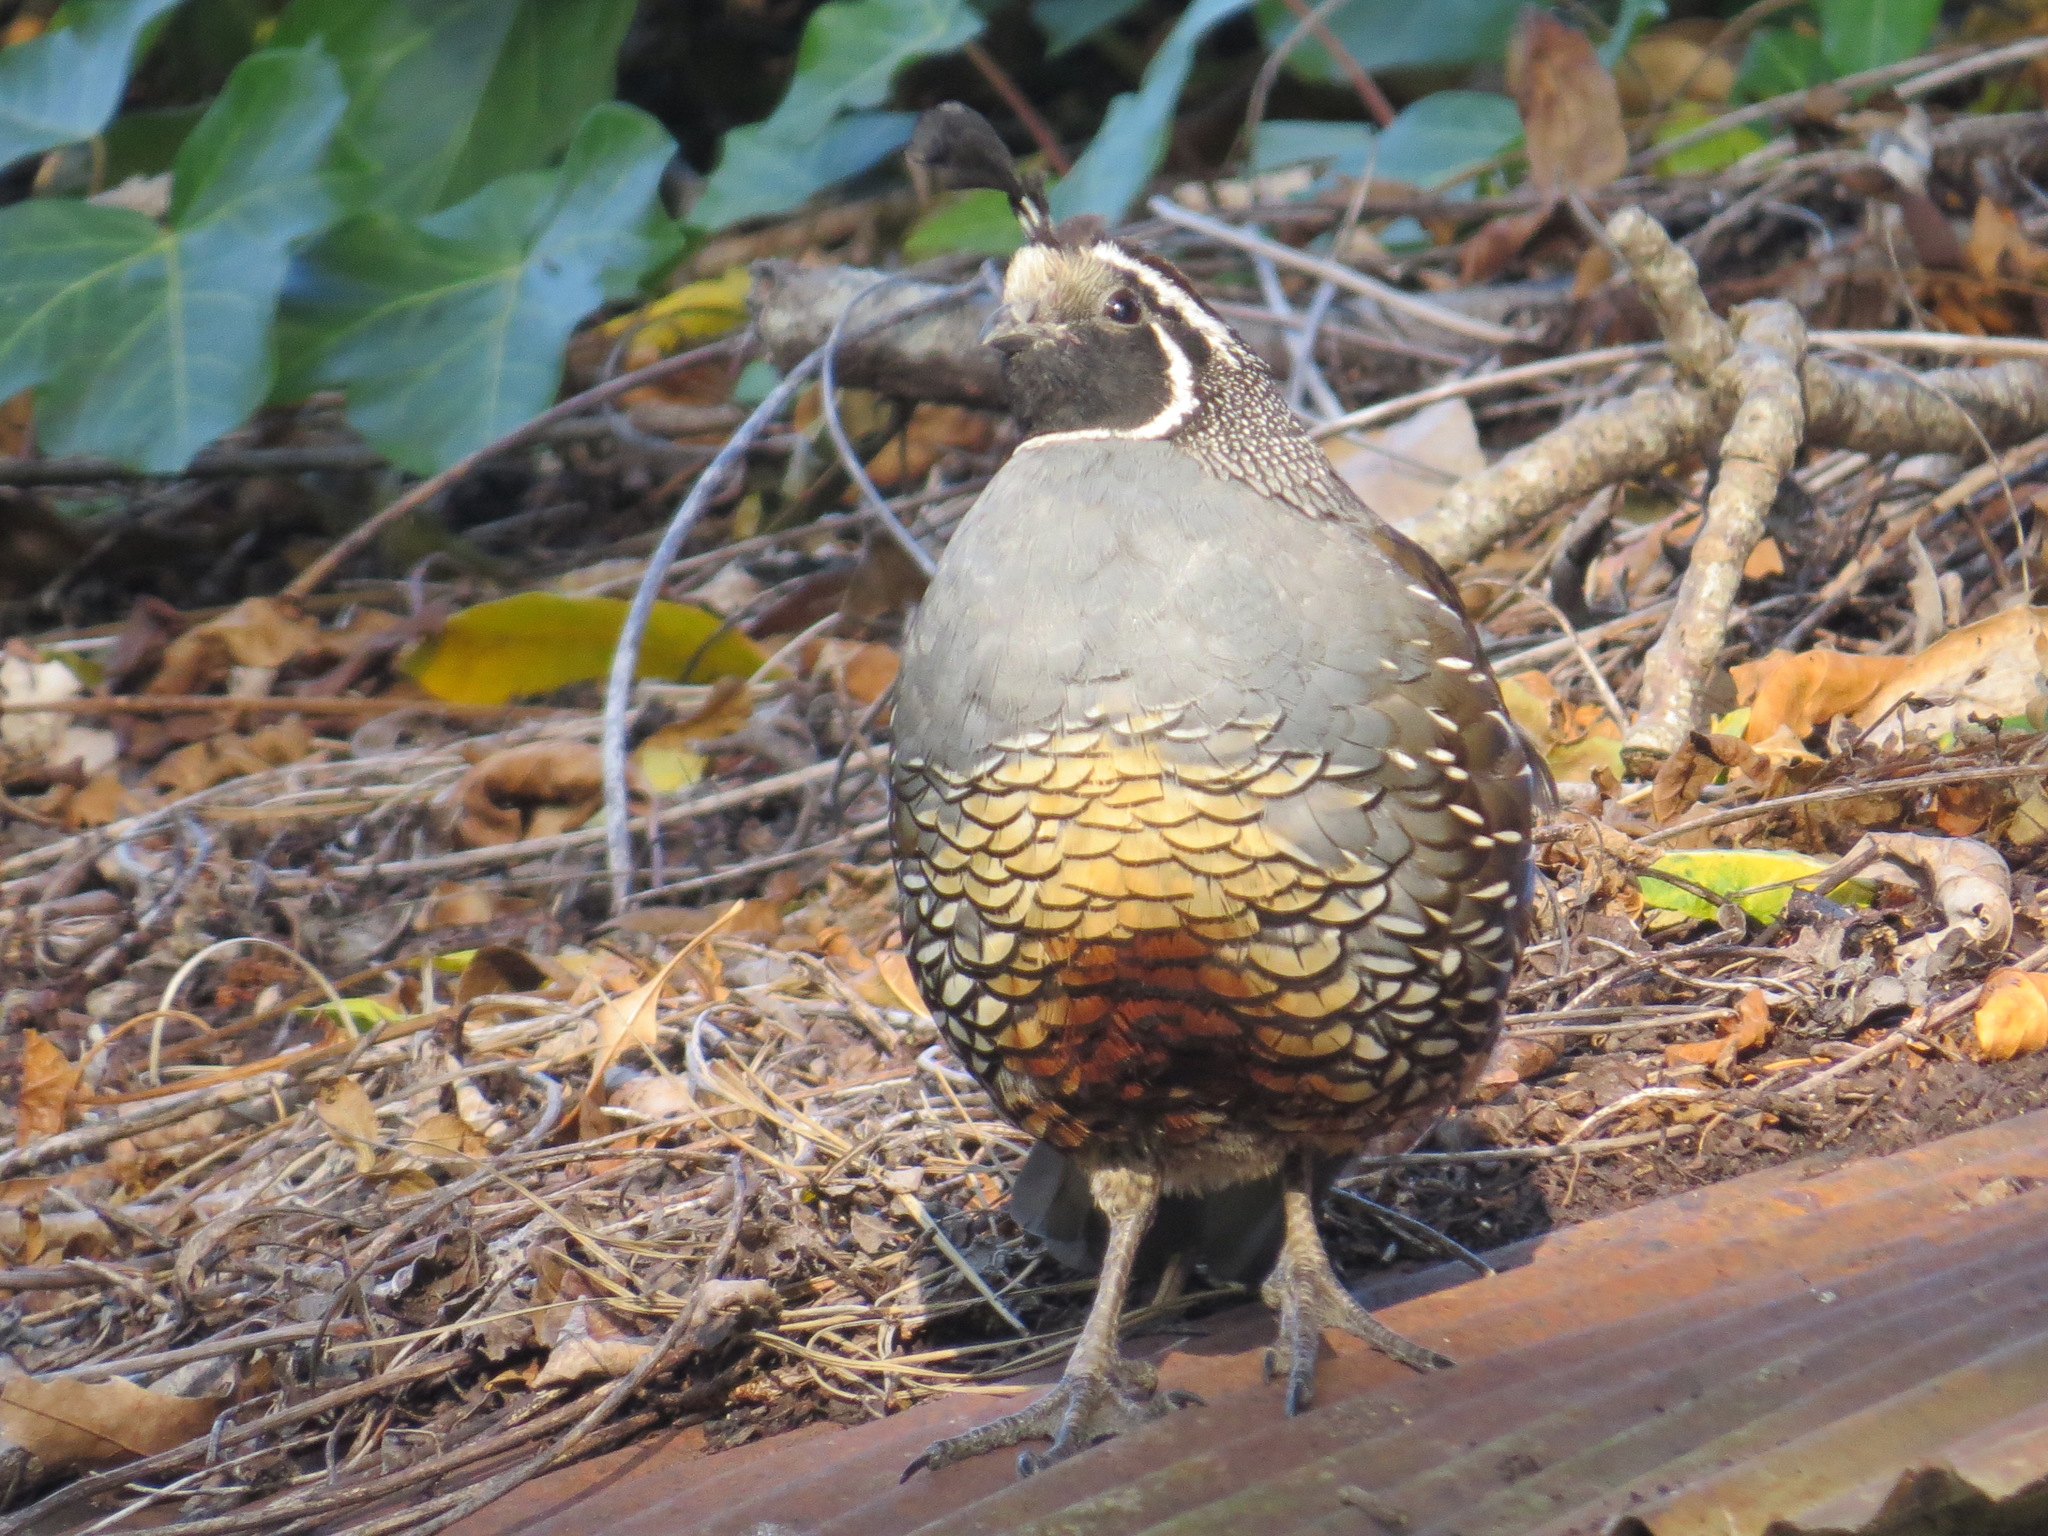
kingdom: Animalia
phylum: Chordata
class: Aves
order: Galliformes
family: Odontophoridae
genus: Callipepla
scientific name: Callipepla californica
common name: California quail
